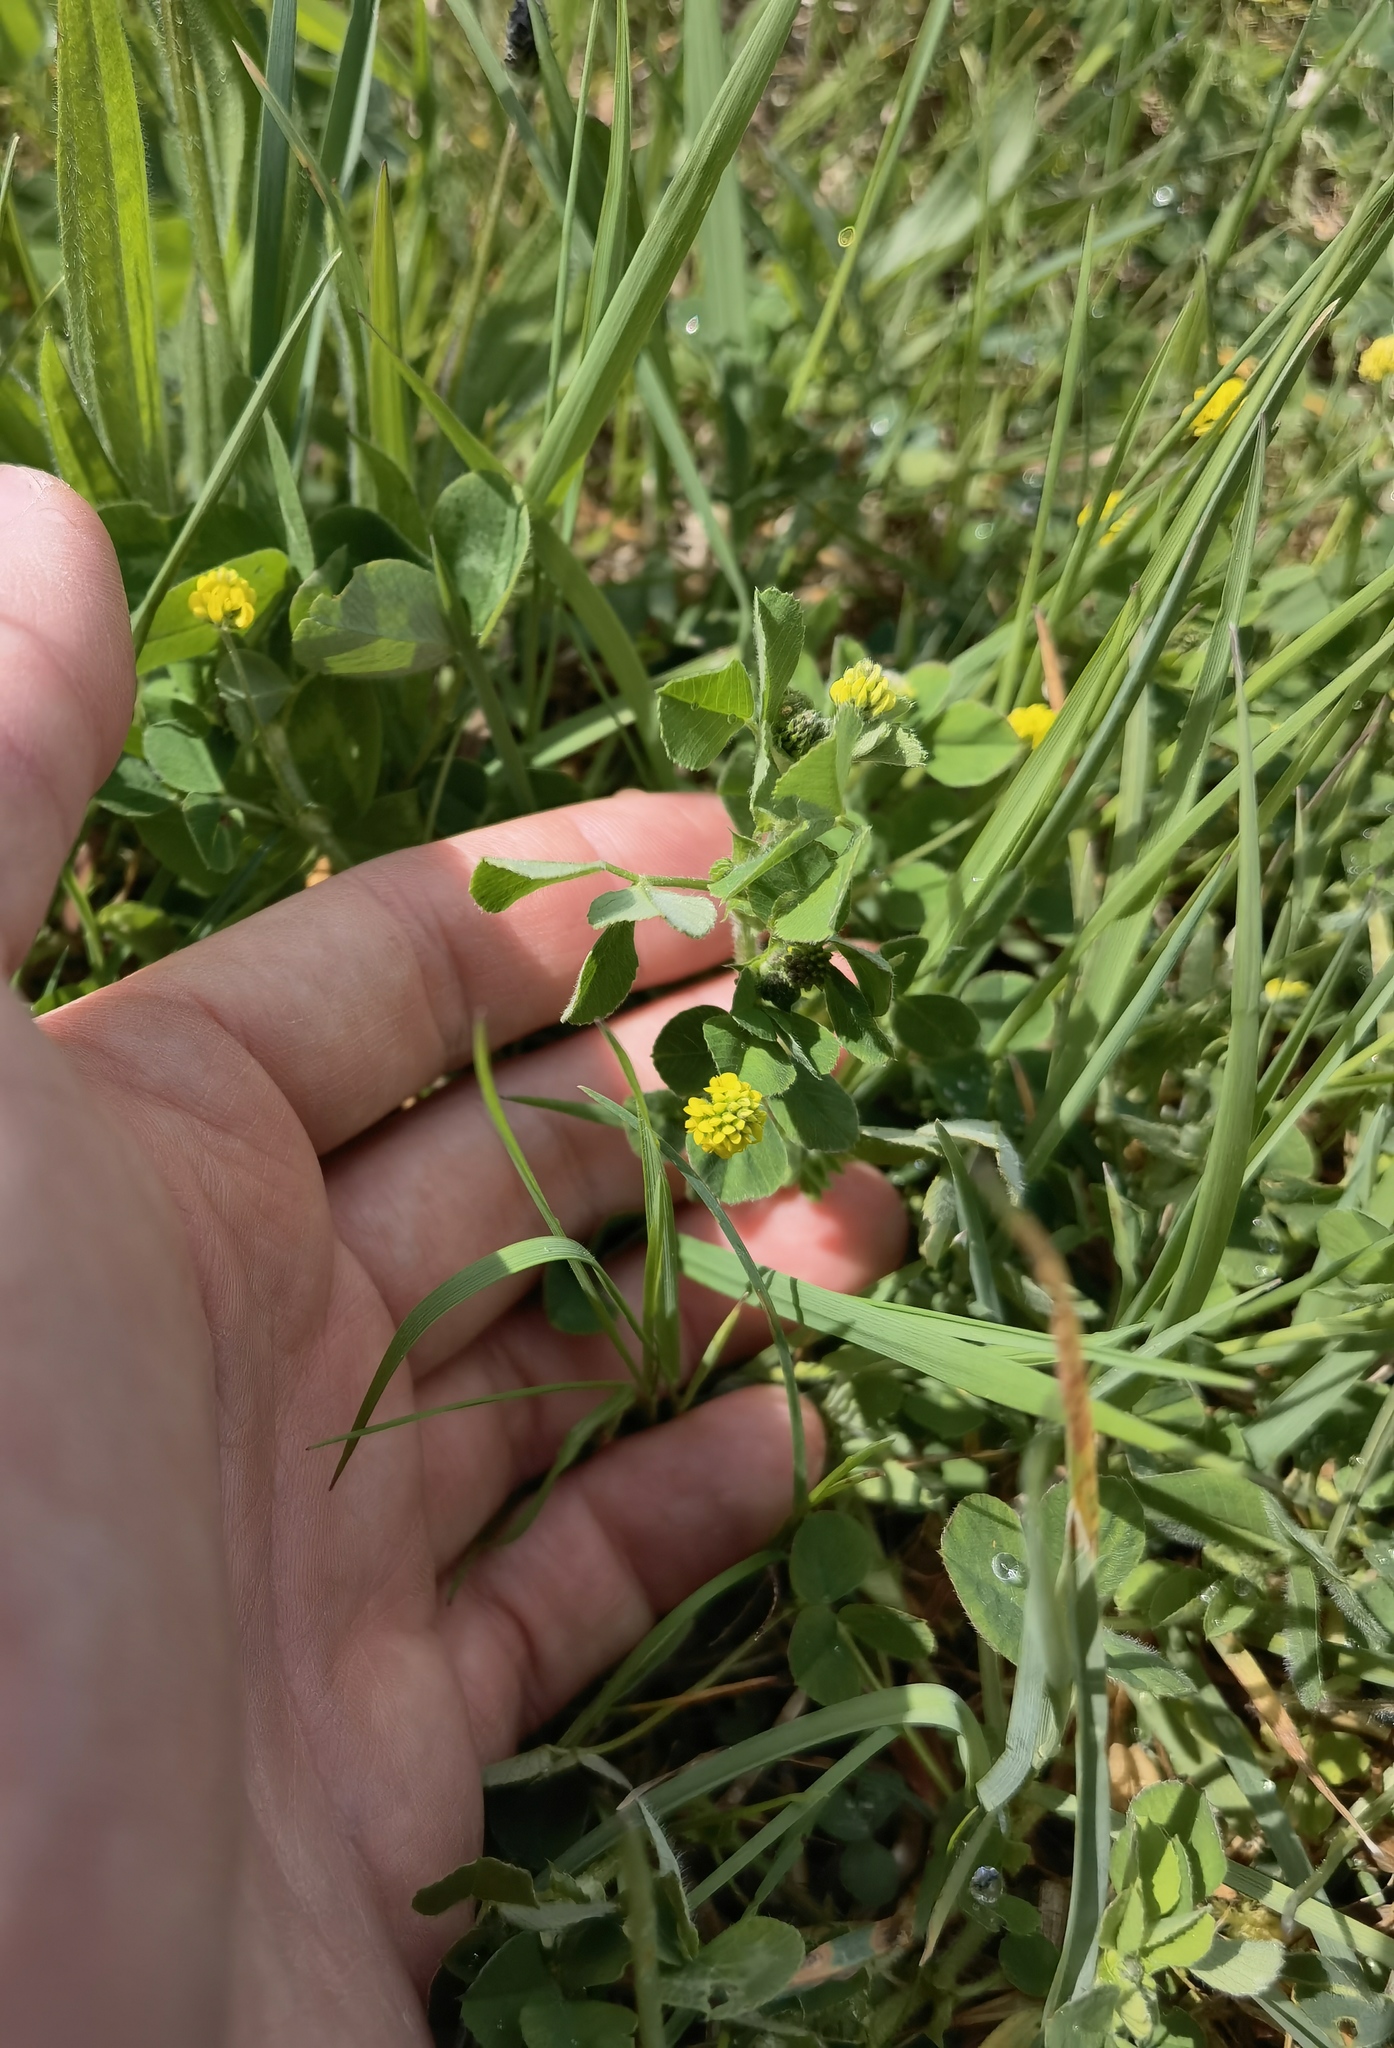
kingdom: Plantae
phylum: Tracheophyta
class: Magnoliopsida
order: Fabales
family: Fabaceae
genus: Medicago
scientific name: Medicago lupulina
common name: Black medick
